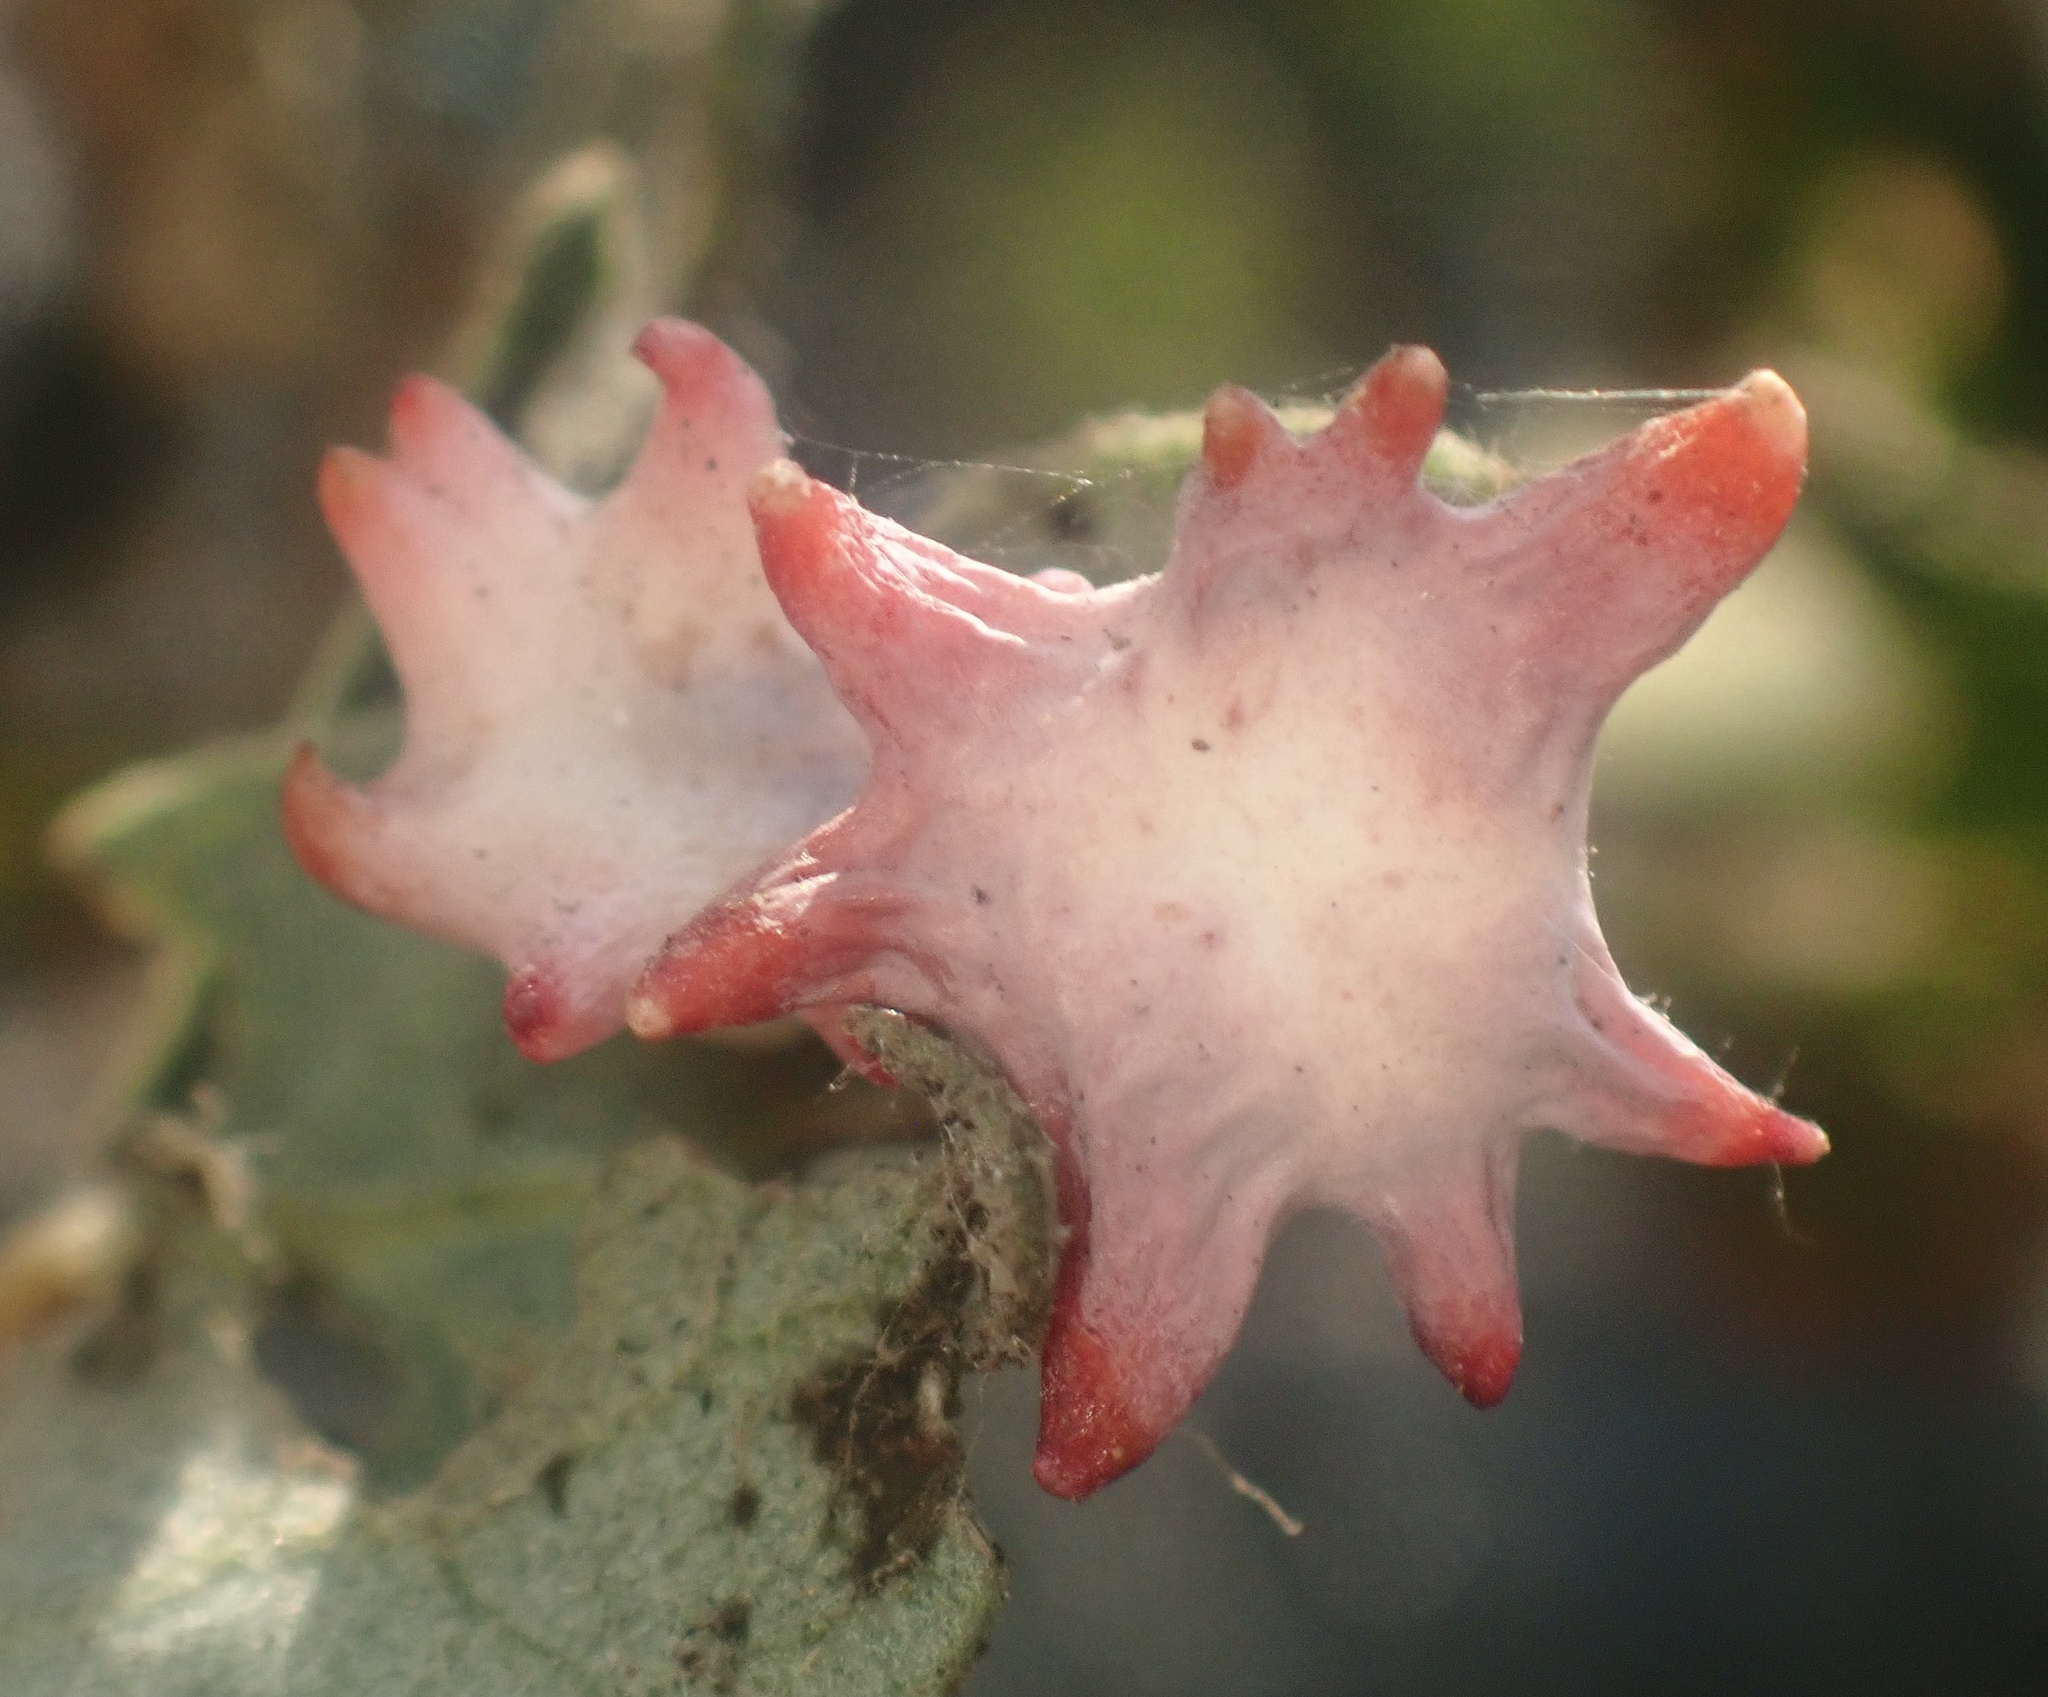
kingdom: Animalia
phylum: Arthropoda
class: Insecta
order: Hymenoptera
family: Cynipidae
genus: Cynips
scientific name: Cynips douglasi
